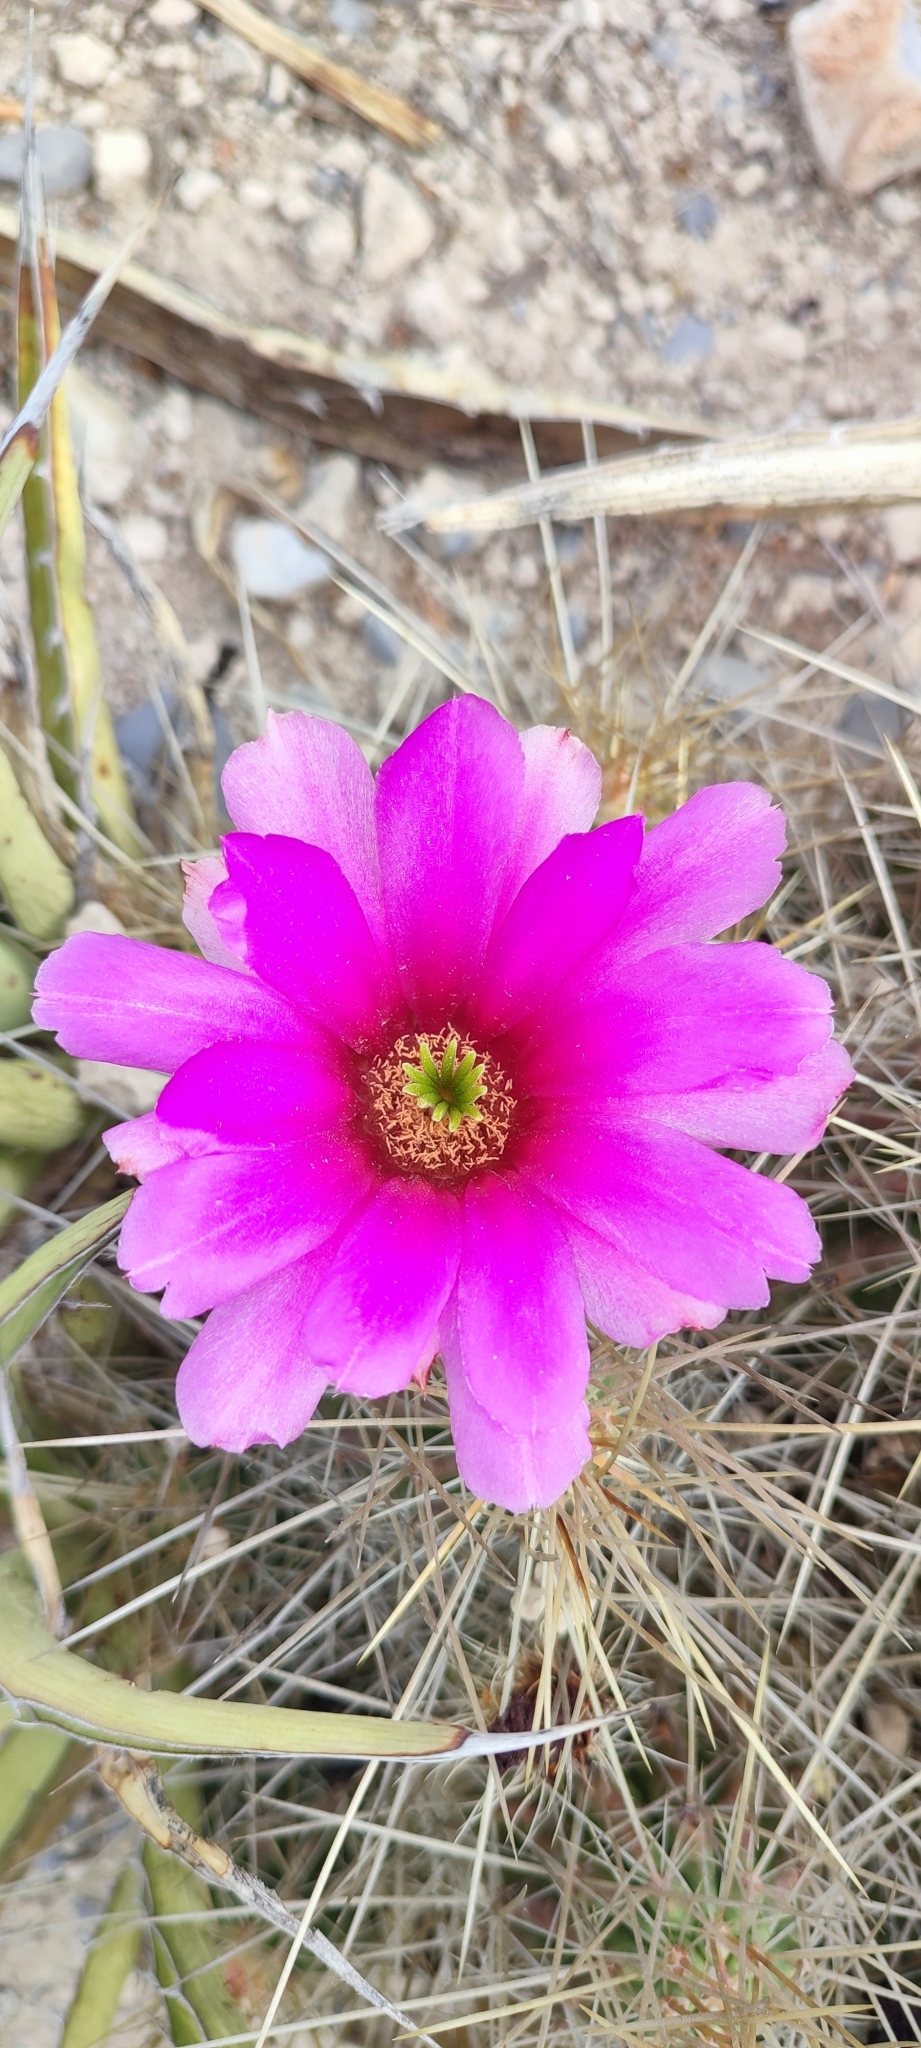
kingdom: Plantae
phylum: Tracheophyta
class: Magnoliopsida
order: Caryophyllales
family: Cactaceae
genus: Echinocereus
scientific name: Echinocereus stramineus
